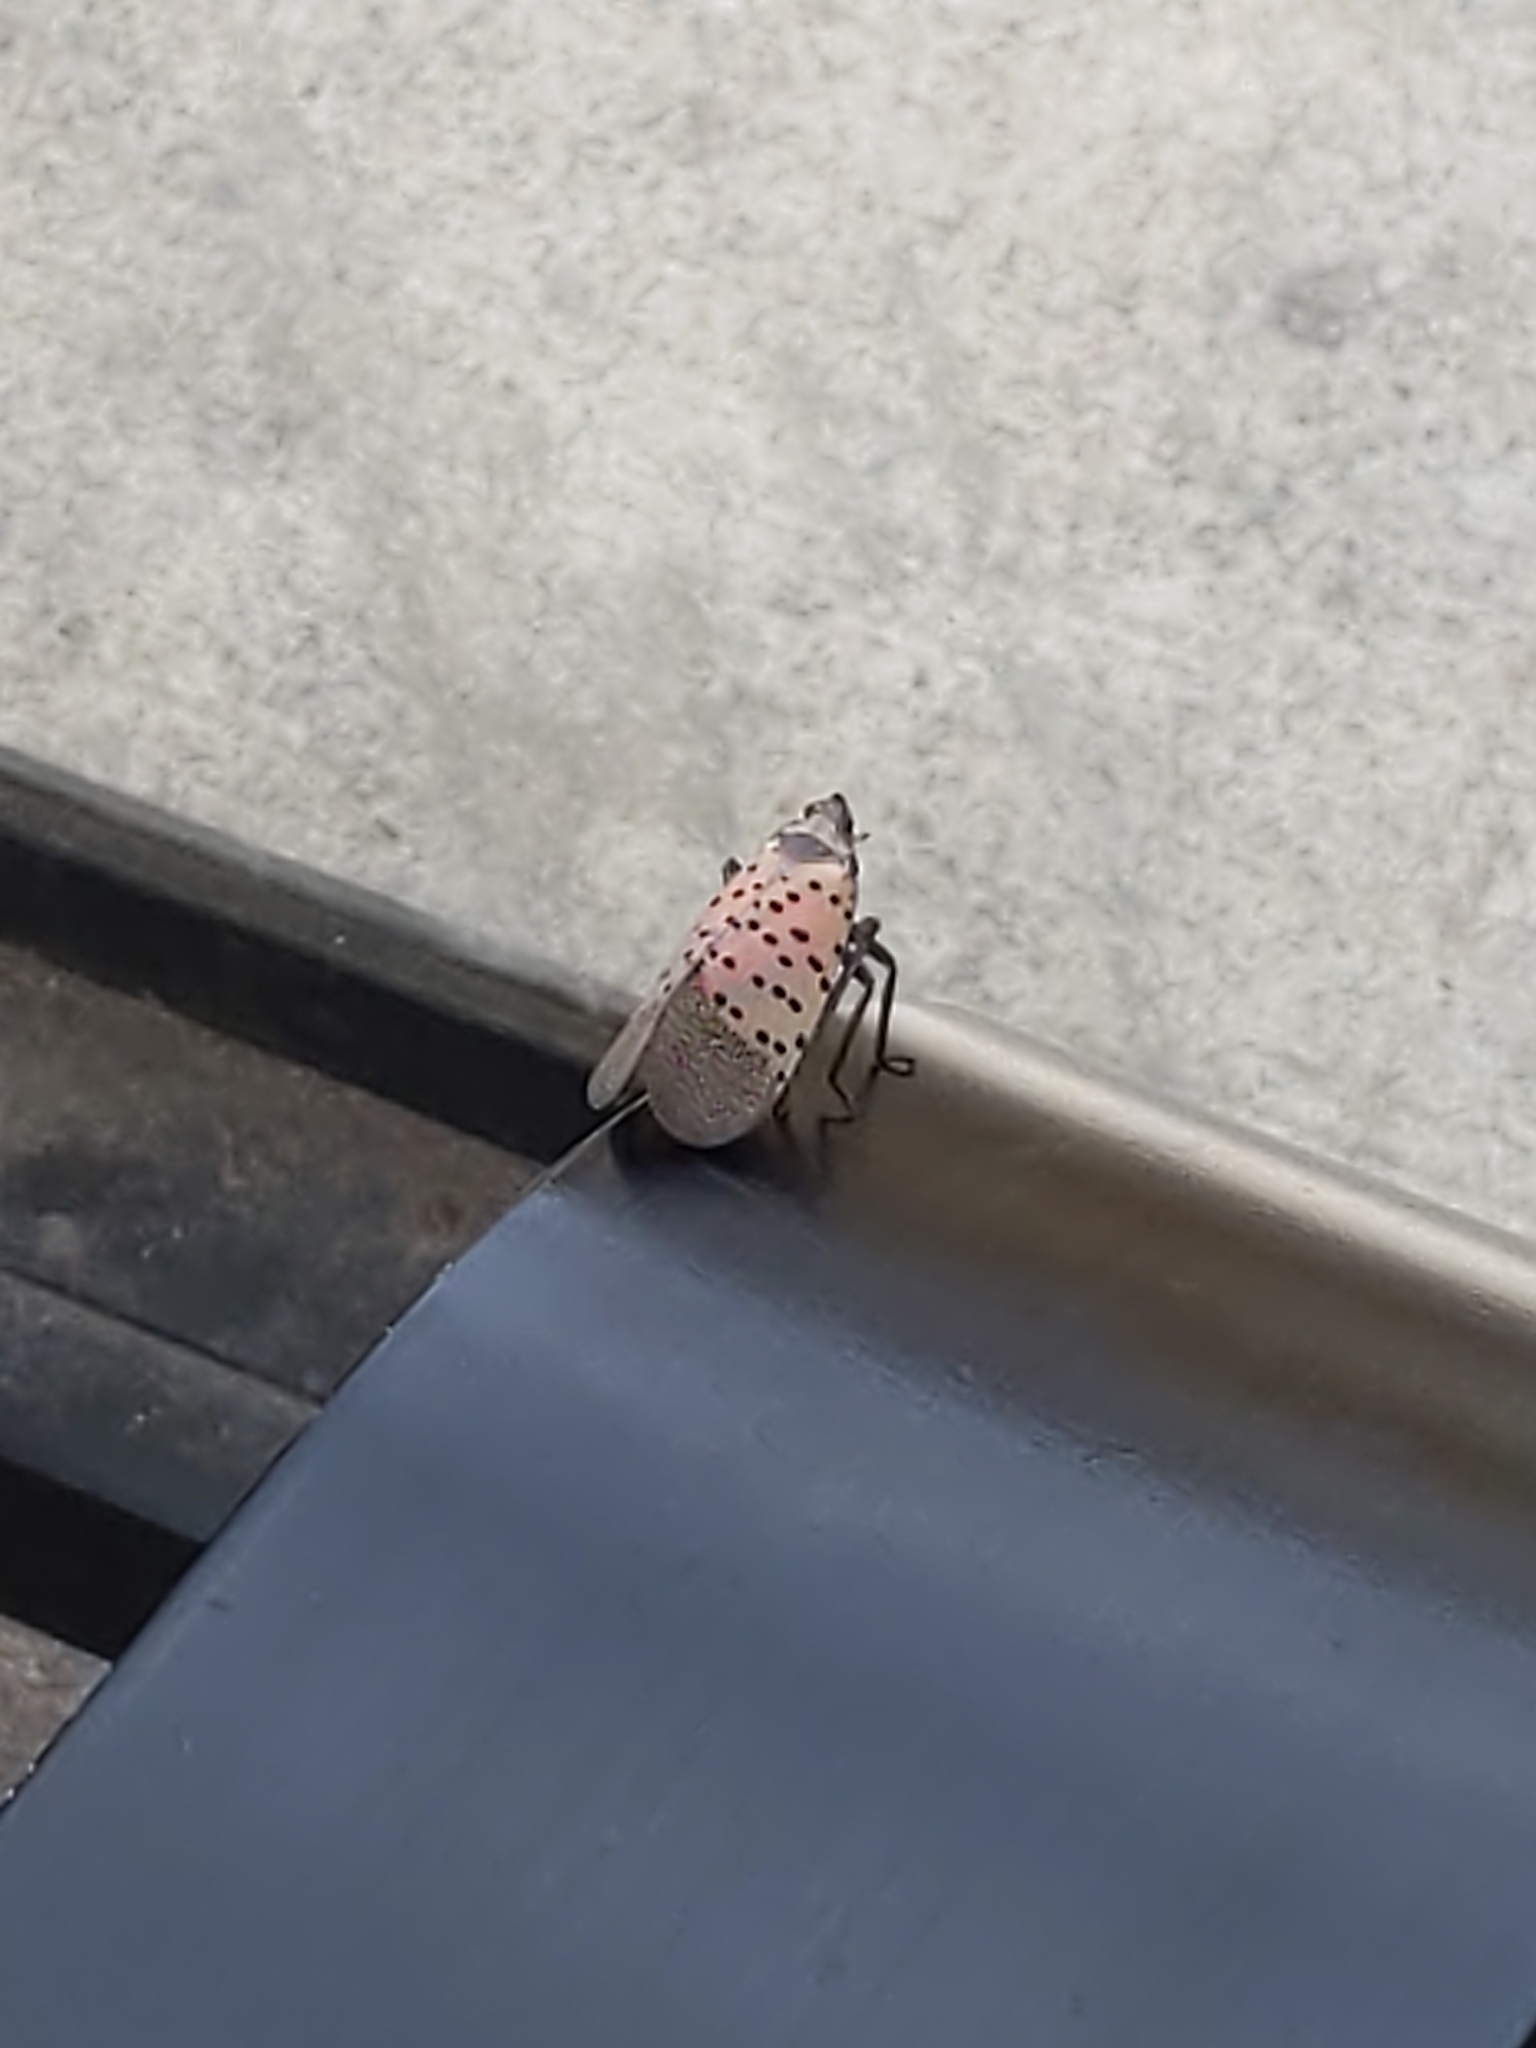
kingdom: Animalia
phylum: Arthropoda
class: Insecta
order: Hemiptera
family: Fulgoridae
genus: Lycorma
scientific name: Lycorma delicatula
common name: Spotted lanternfly
